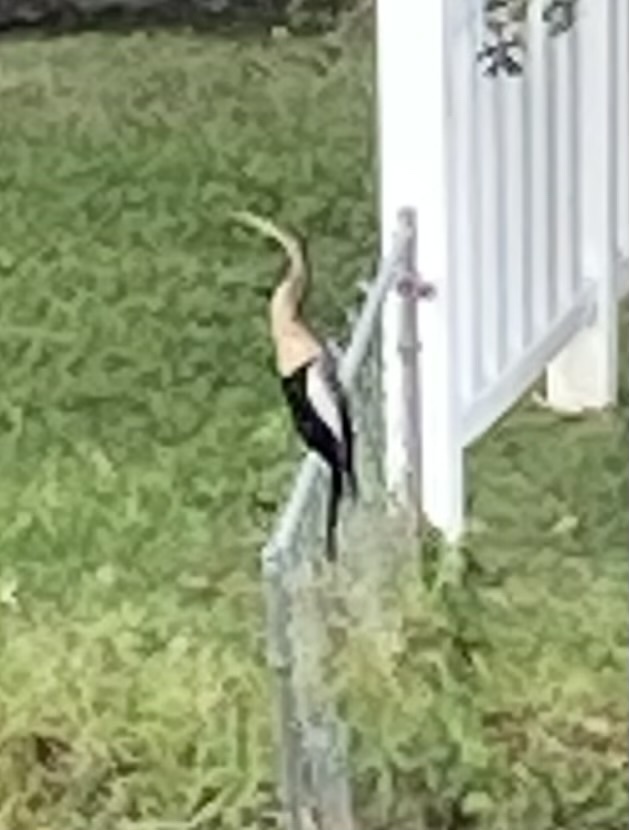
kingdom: Animalia
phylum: Chordata
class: Aves
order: Suliformes
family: Anhingidae
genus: Anhinga
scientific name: Anhinga anhinga
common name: Anhinga
